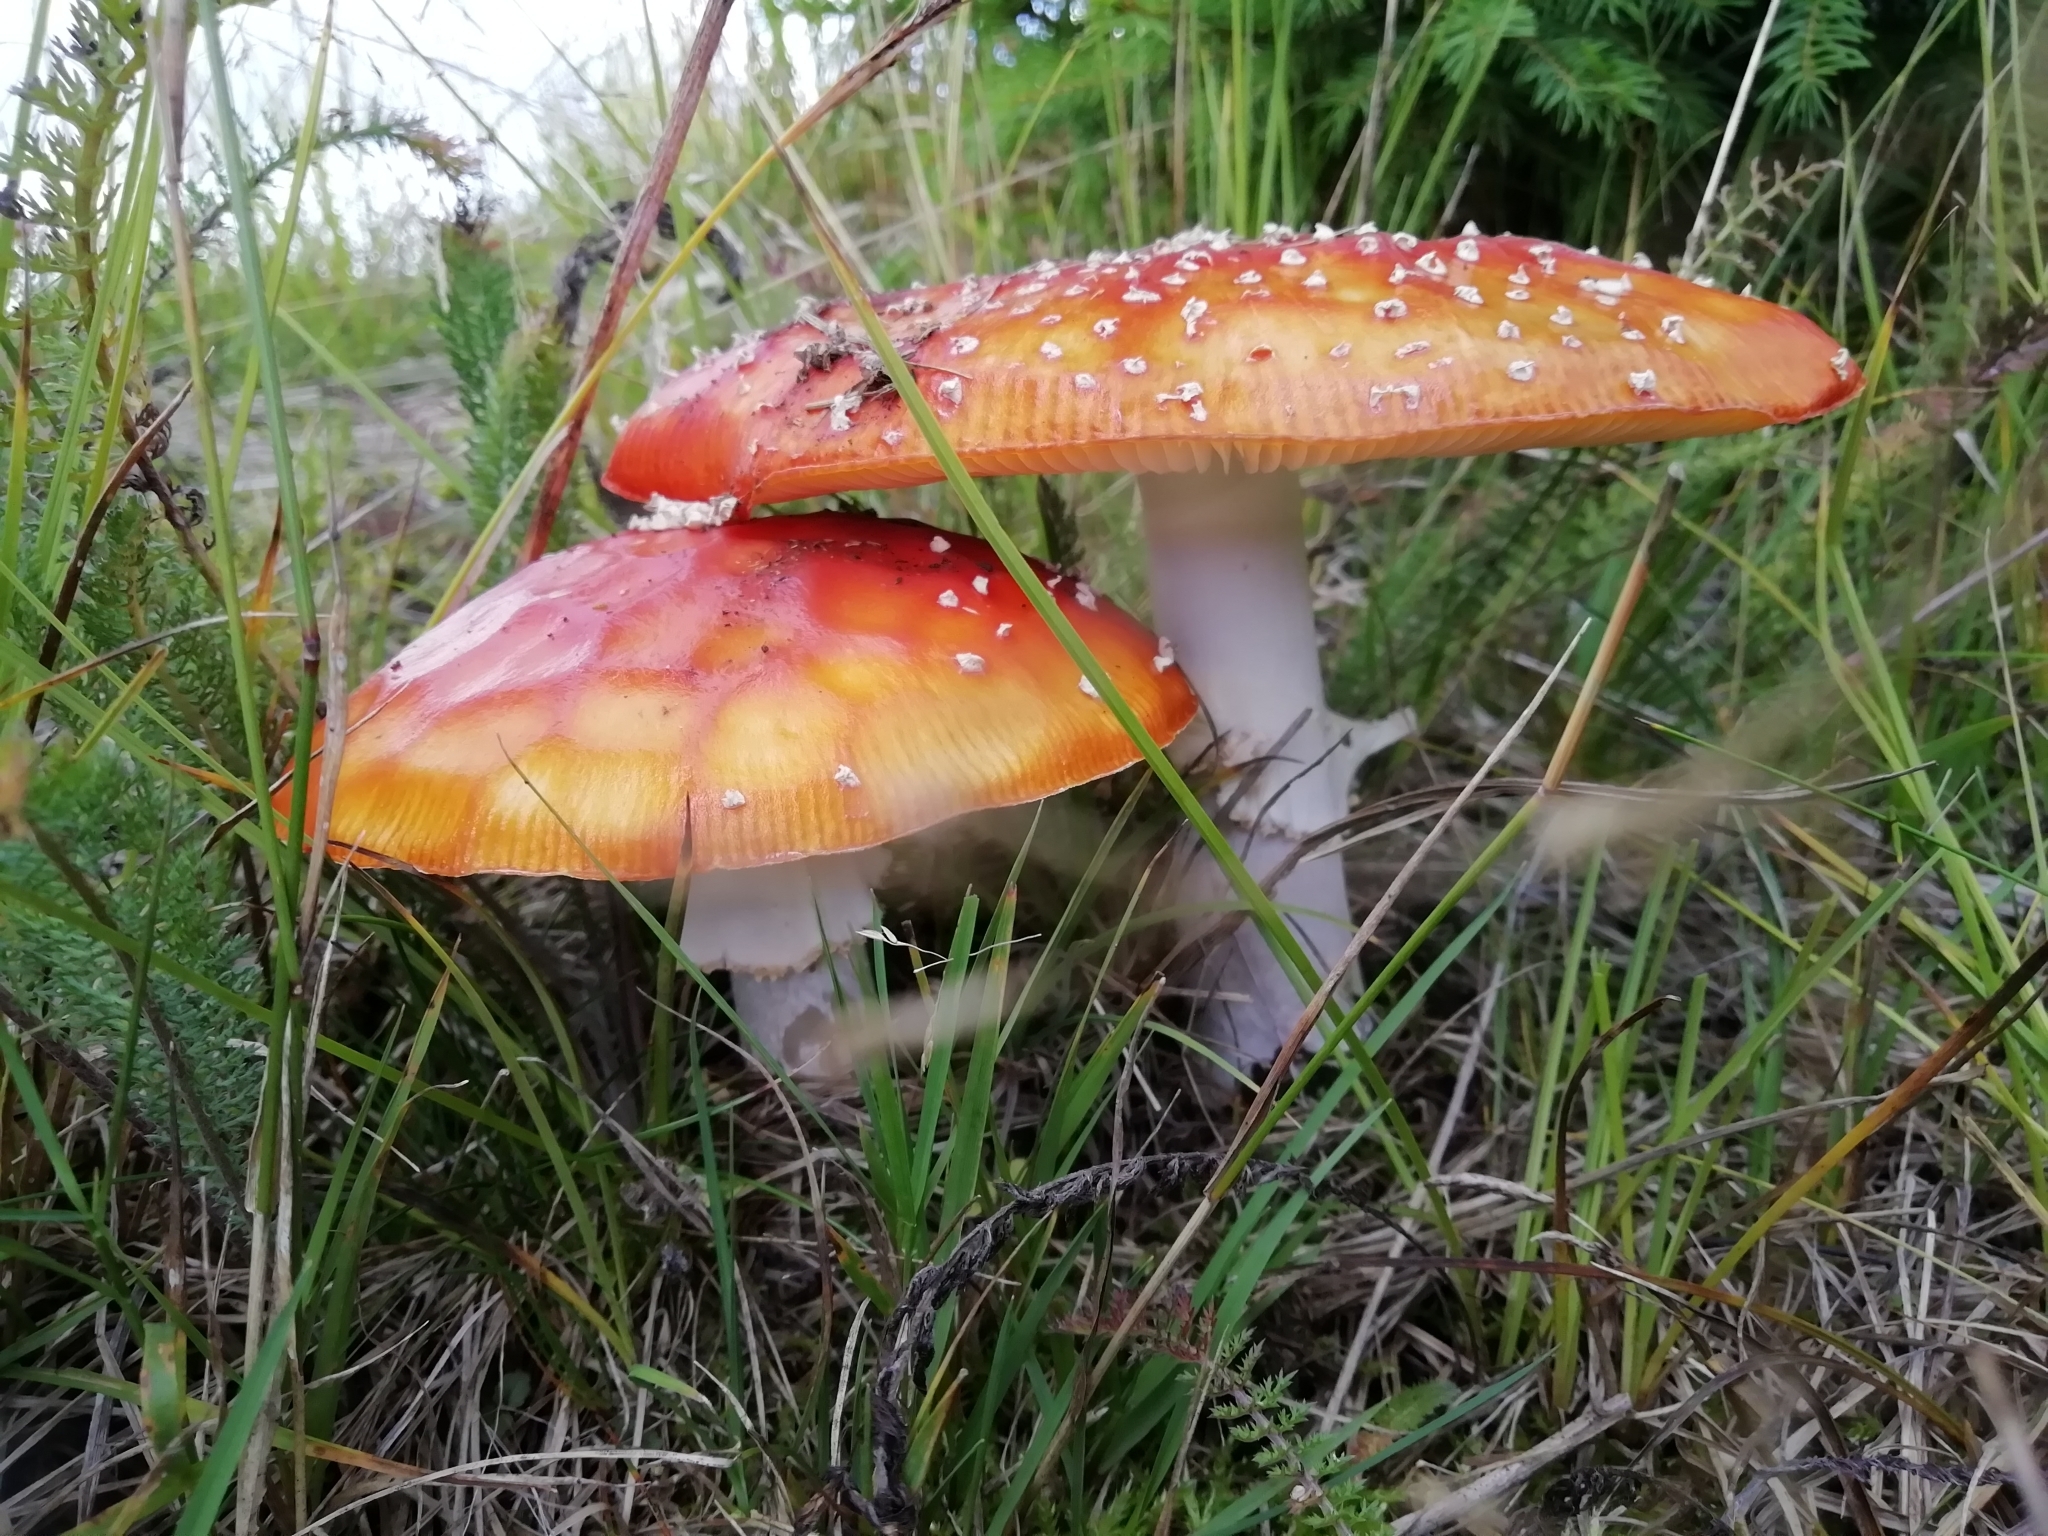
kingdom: Fungi
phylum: Basidiomycota
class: Agaricomycetes
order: Agaricales
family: Amanitaceae
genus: Amanita
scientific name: Amanita muscaria
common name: Fly agaric
